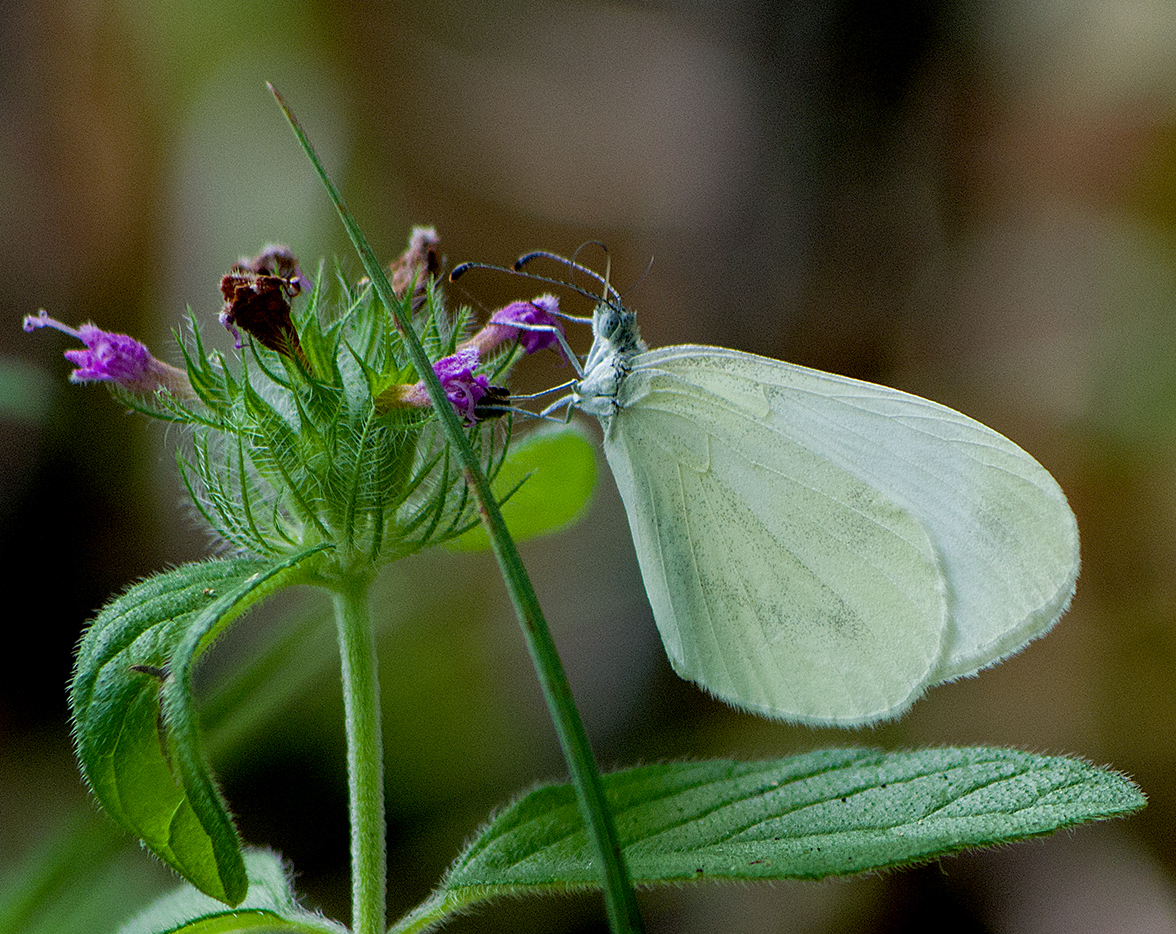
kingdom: Animalia
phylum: Arthropoda
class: Insecta
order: Lepidoptera
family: Pieridae
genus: Leptidea
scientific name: Leptidea
